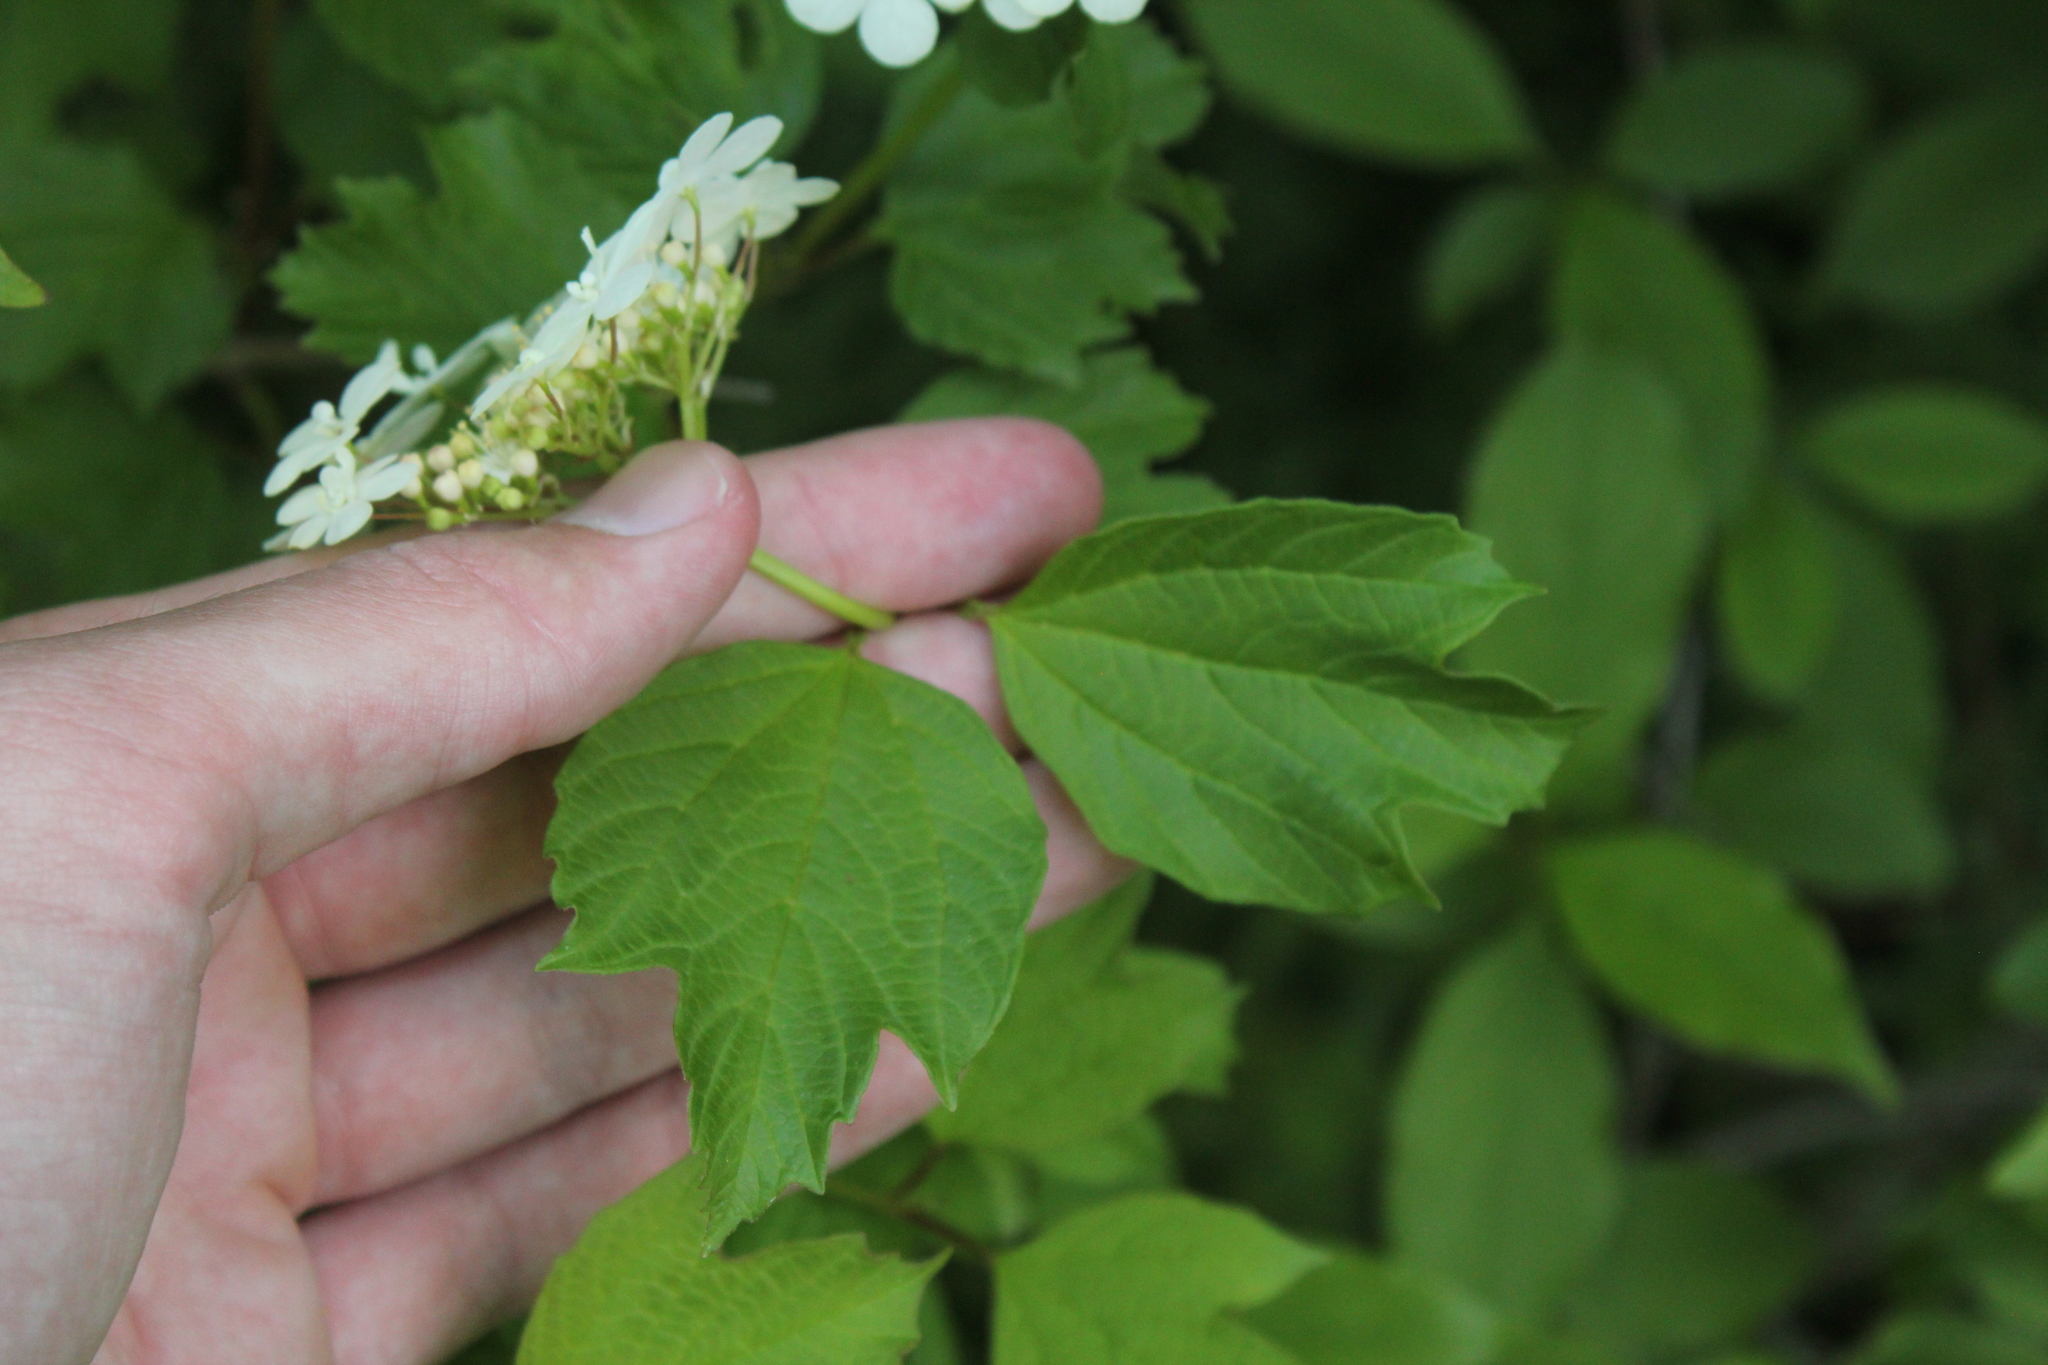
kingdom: Plantae
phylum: Tracheophyta
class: Magnoliopsida
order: Dipsacales
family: Viburnaceae
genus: Viburnum
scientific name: Viburnum opulus
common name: Guelder-rose
